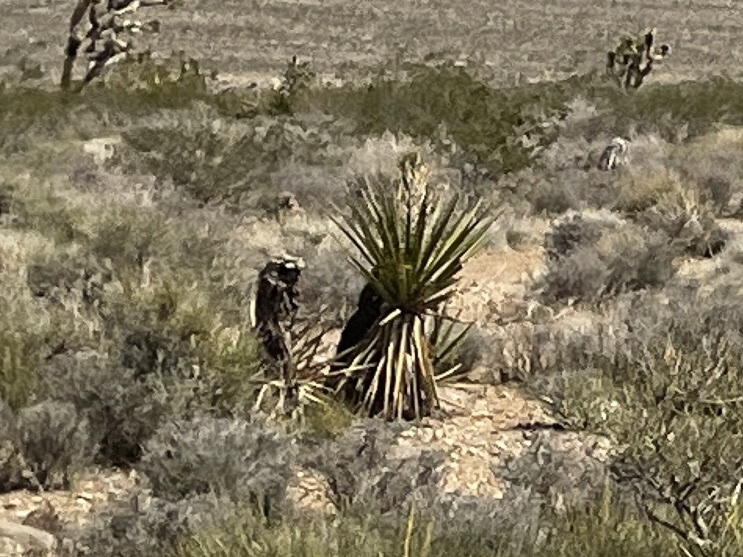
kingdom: Plantae
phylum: Tracheophyta
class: Liliopsida
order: Asparagales
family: Asparagaceae
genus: Yucca
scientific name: Yucca schidigera
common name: Mojave yucca
